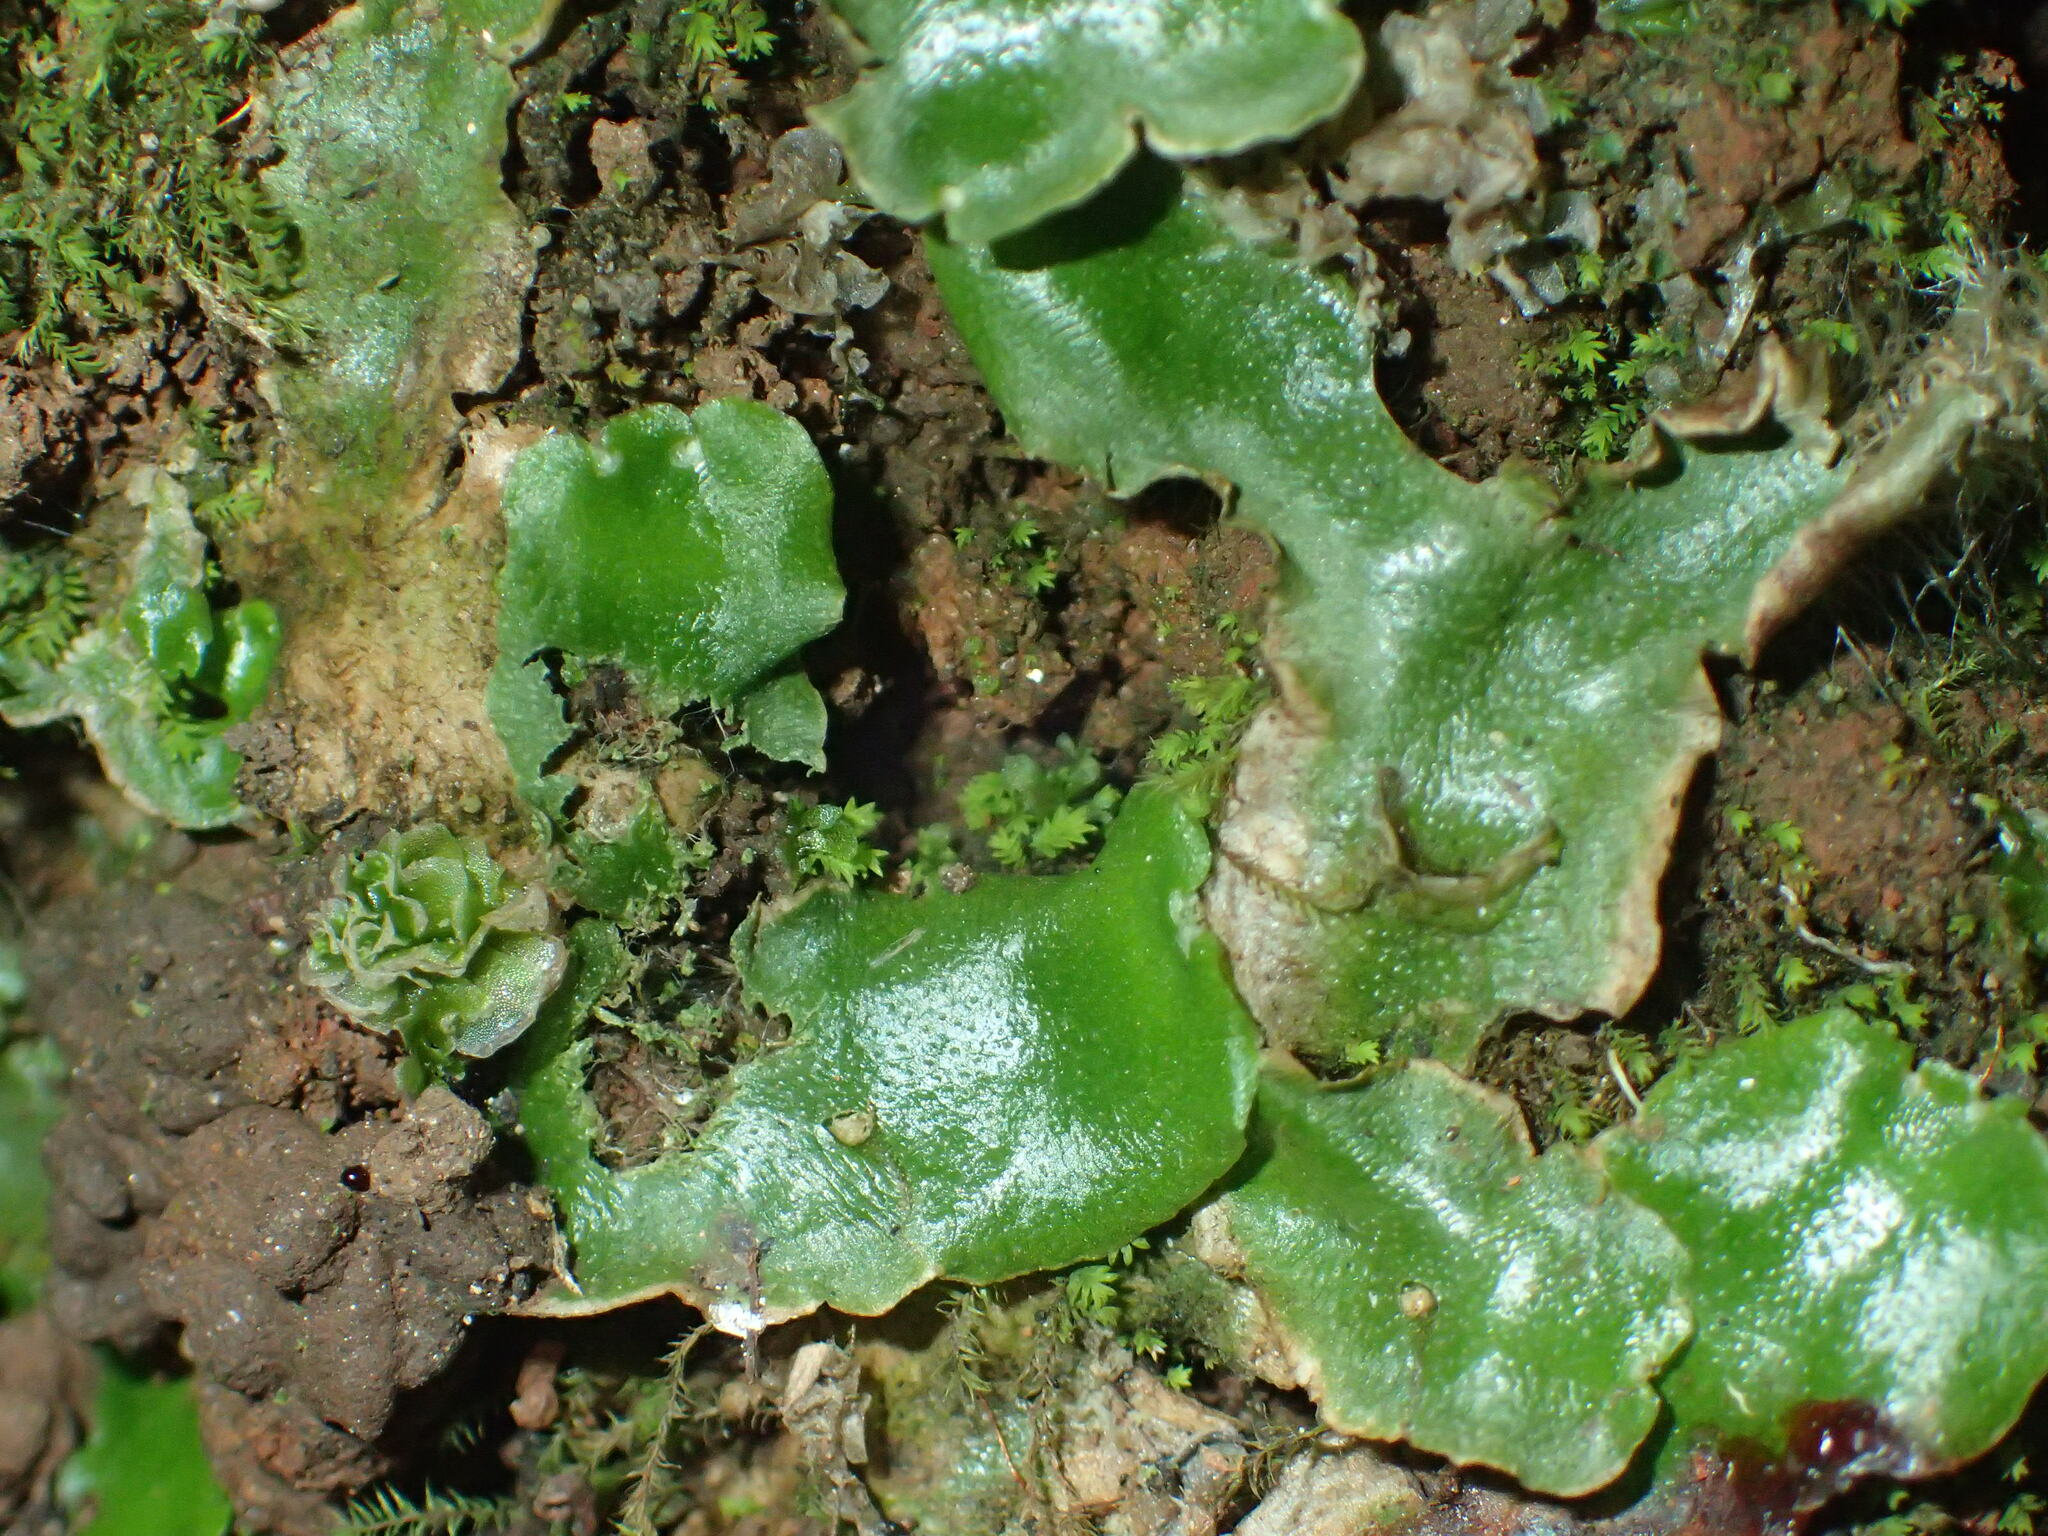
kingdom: Plantae
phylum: Marchantiophyta
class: Marchantiopsida
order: Lunulariales
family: Lunulariaceae
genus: Lunularia
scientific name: Lunularia cruciata
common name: Crescent-cup liverwort
